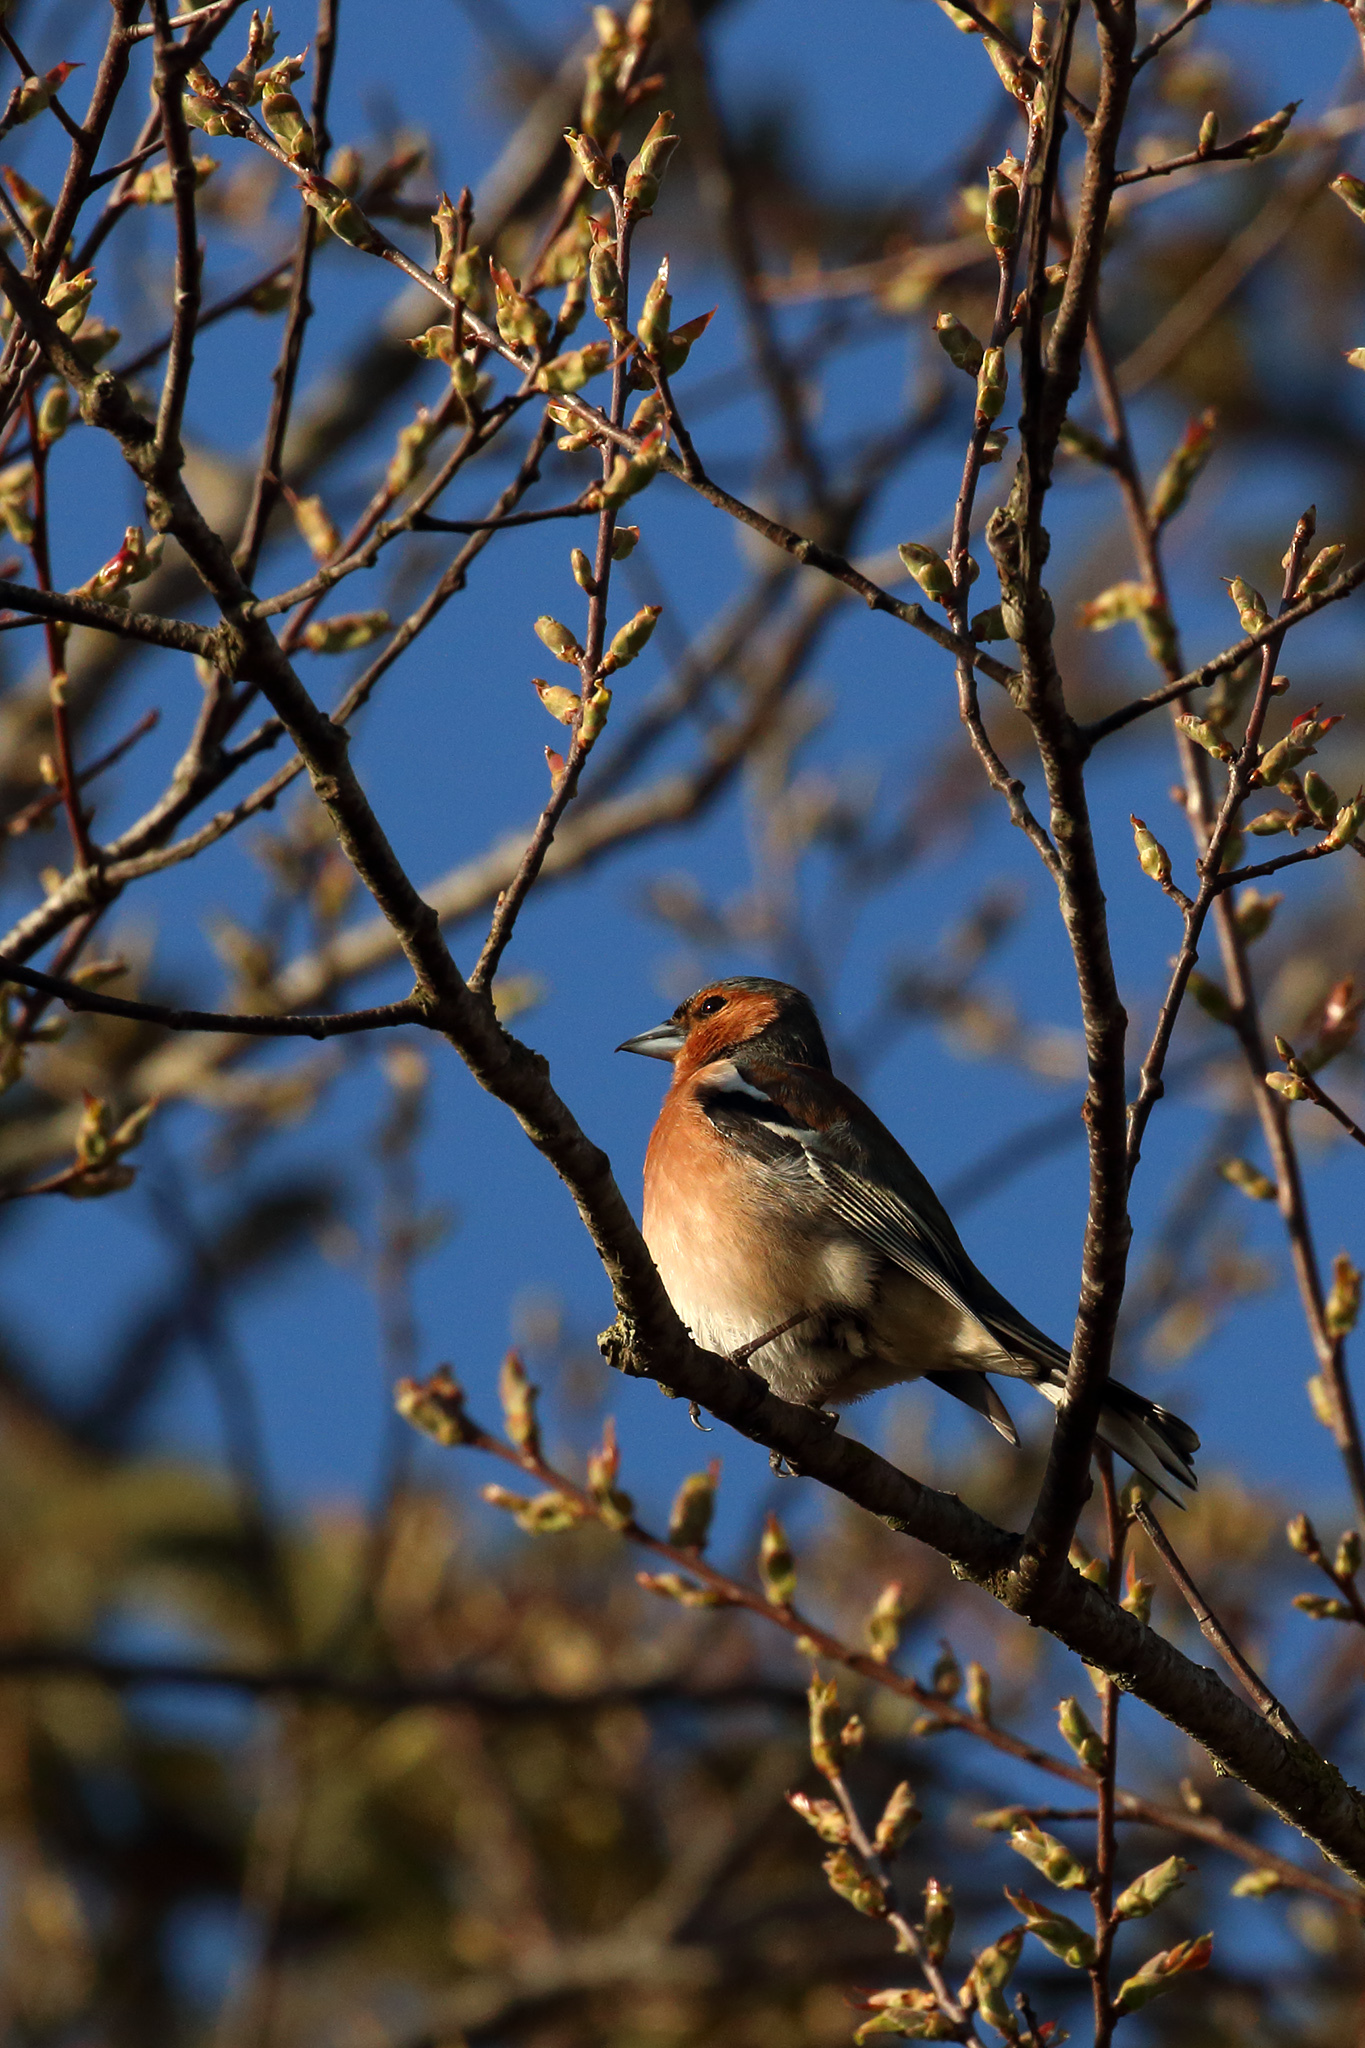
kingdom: Animalia
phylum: Chordata
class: Aves
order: Passeriformes
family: Fringillidae
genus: Fringilla
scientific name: Fringilla coelebs
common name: Common chaffinch
